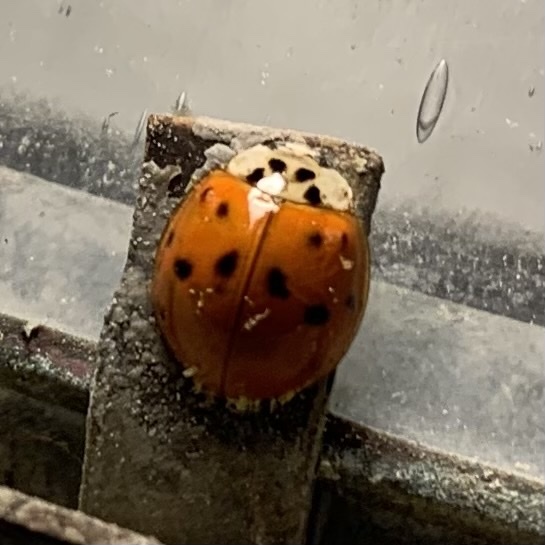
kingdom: Animalia
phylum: Arthropoda
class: Insecta
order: Coleoptera
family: Coccinellidae
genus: Harmonia
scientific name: Harmonia axyridis
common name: Harlequin ladybird
